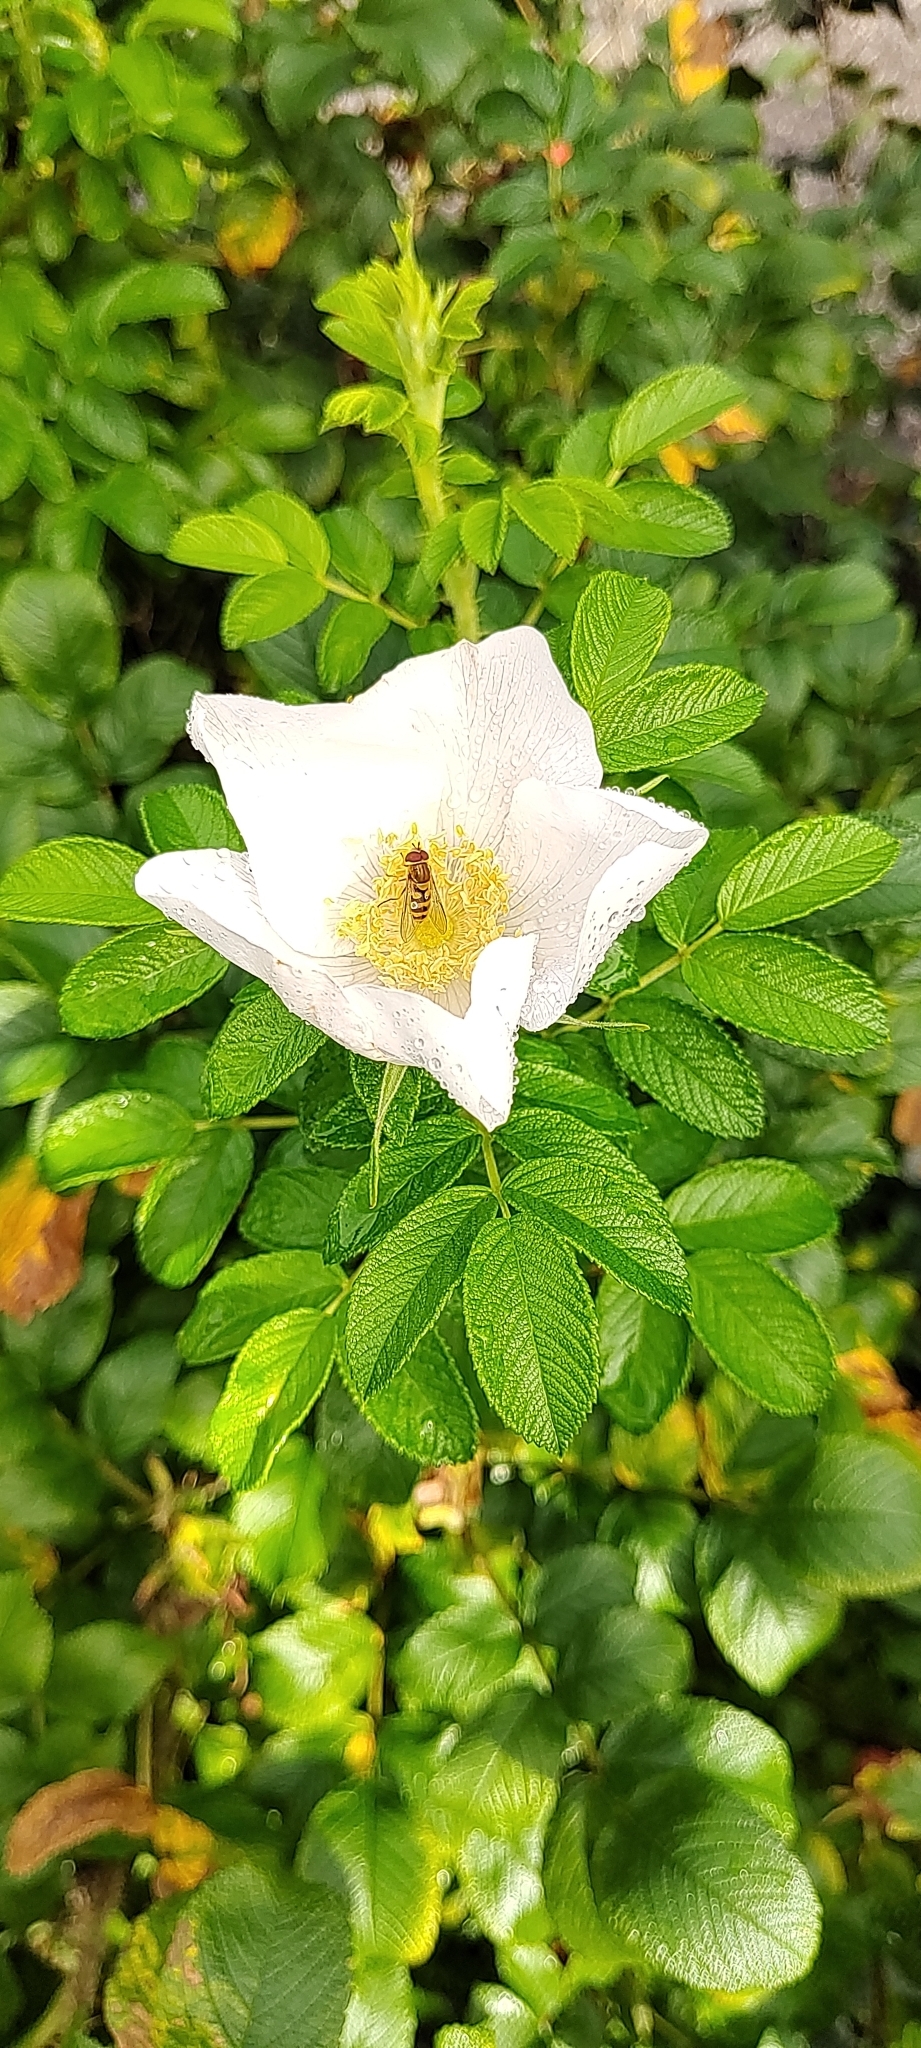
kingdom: Plantae
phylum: Tracheophyta
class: Magnoliopsida
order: Rosales
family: Rosaceae
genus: Rosa
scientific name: Rosa rugosa
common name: Japanese rose
